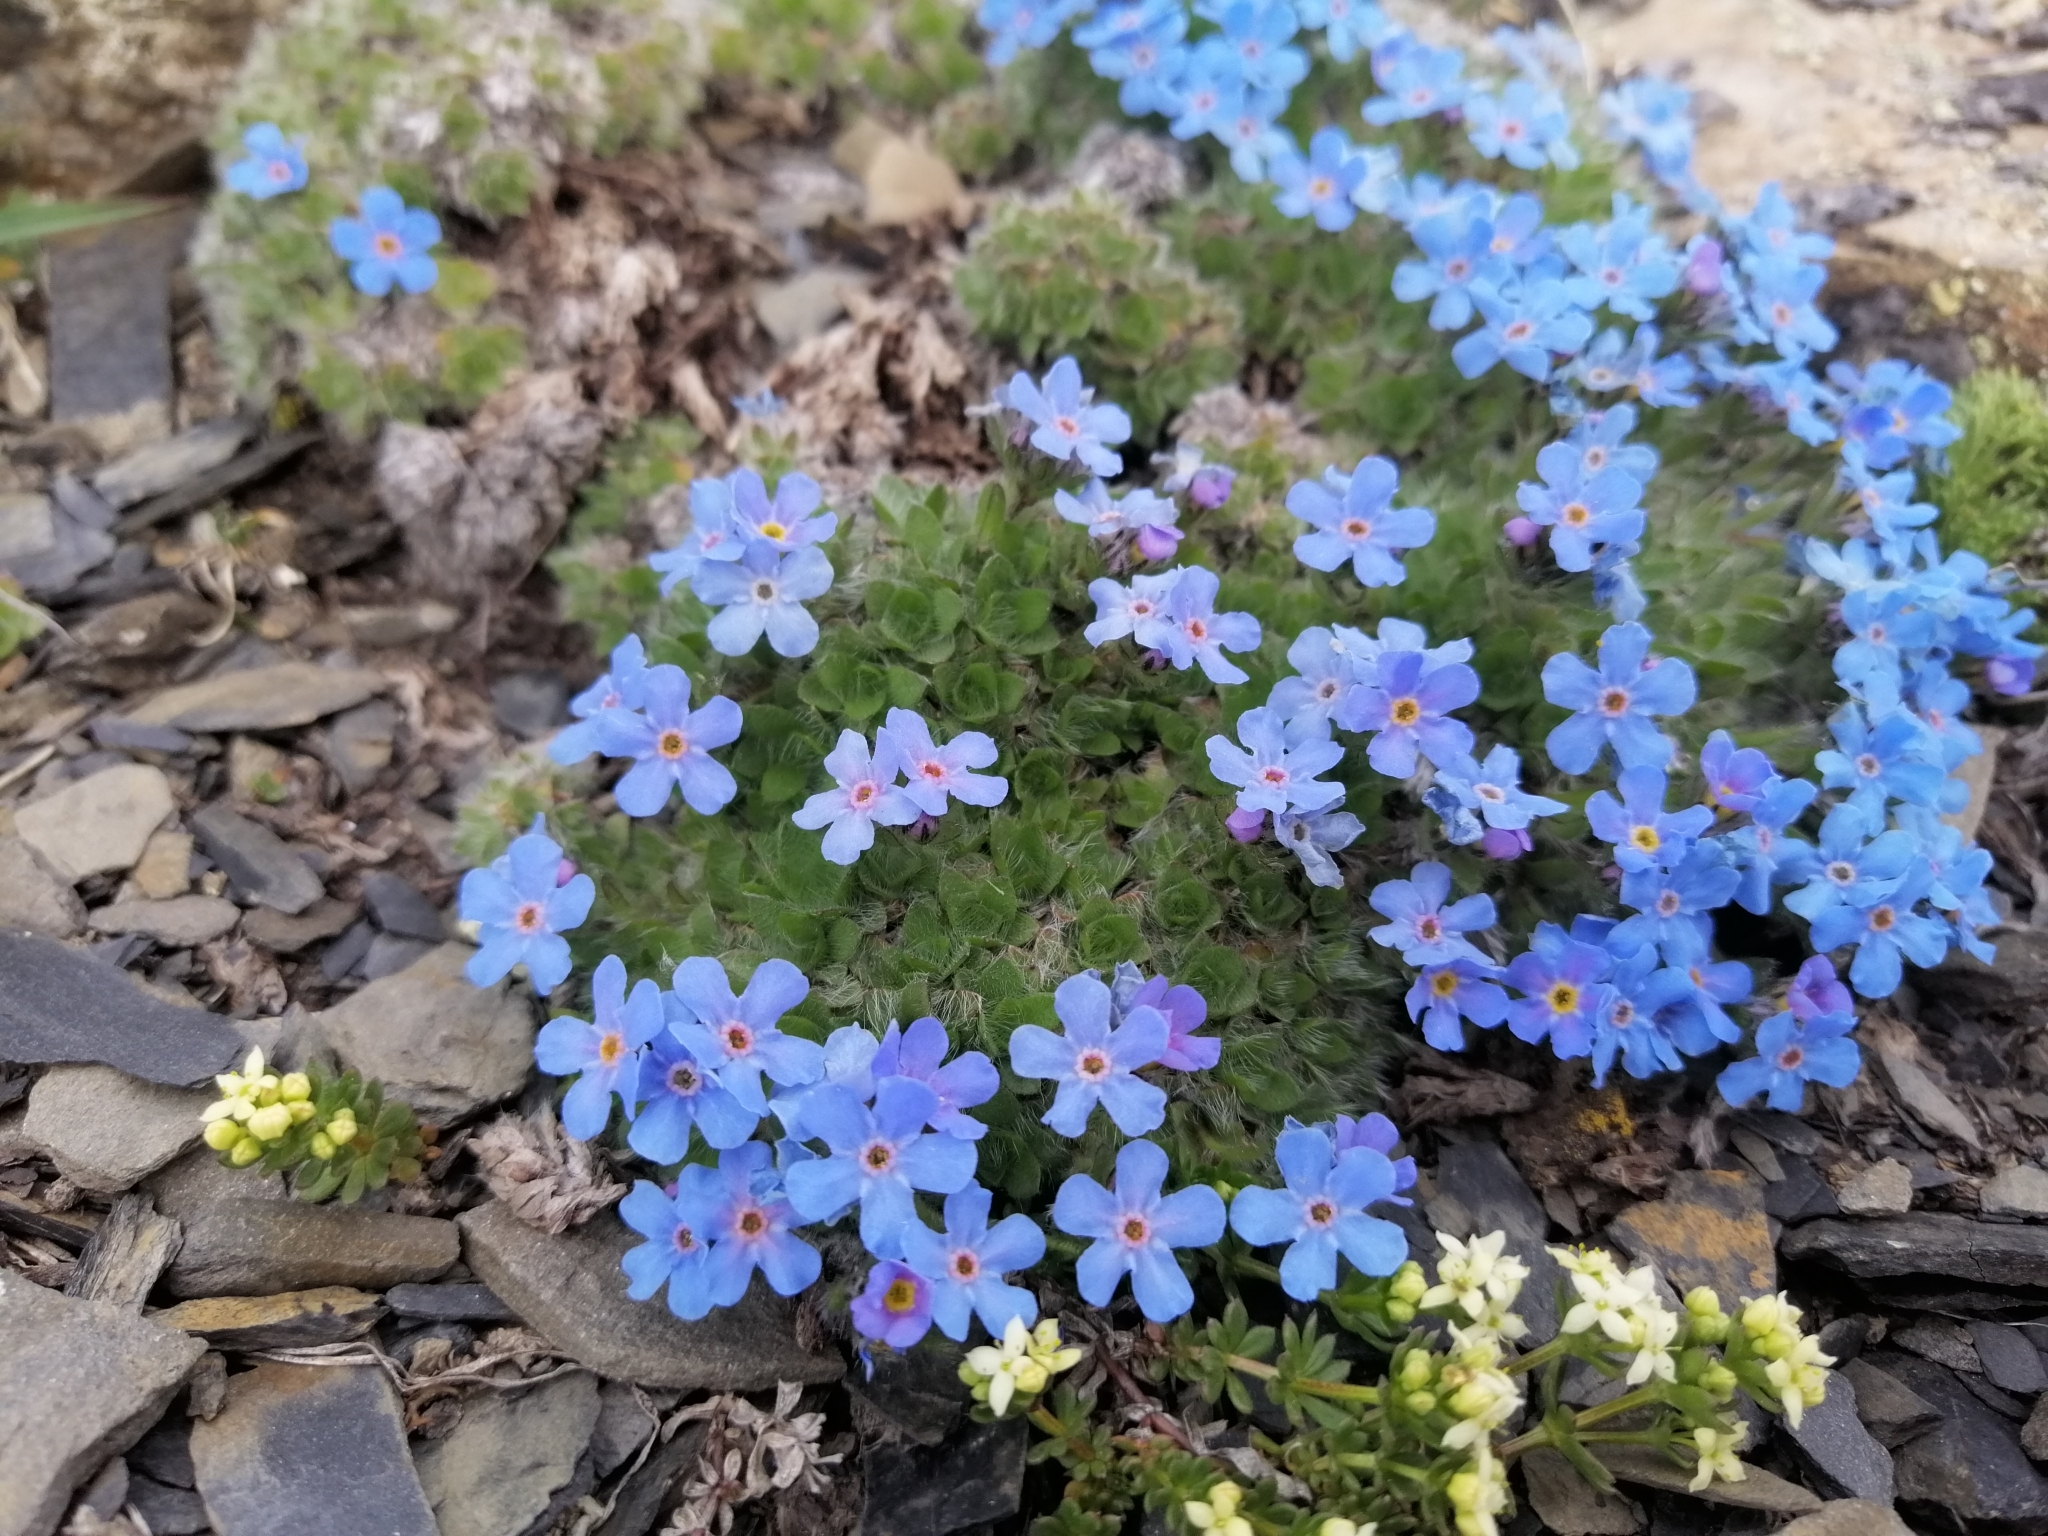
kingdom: Plantae
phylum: Tracheophyta
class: Magnoliopsida
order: Boraginales
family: Boraginaceae
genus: Eritrichium
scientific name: Eritrichium nanum
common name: King-of-the-alps
